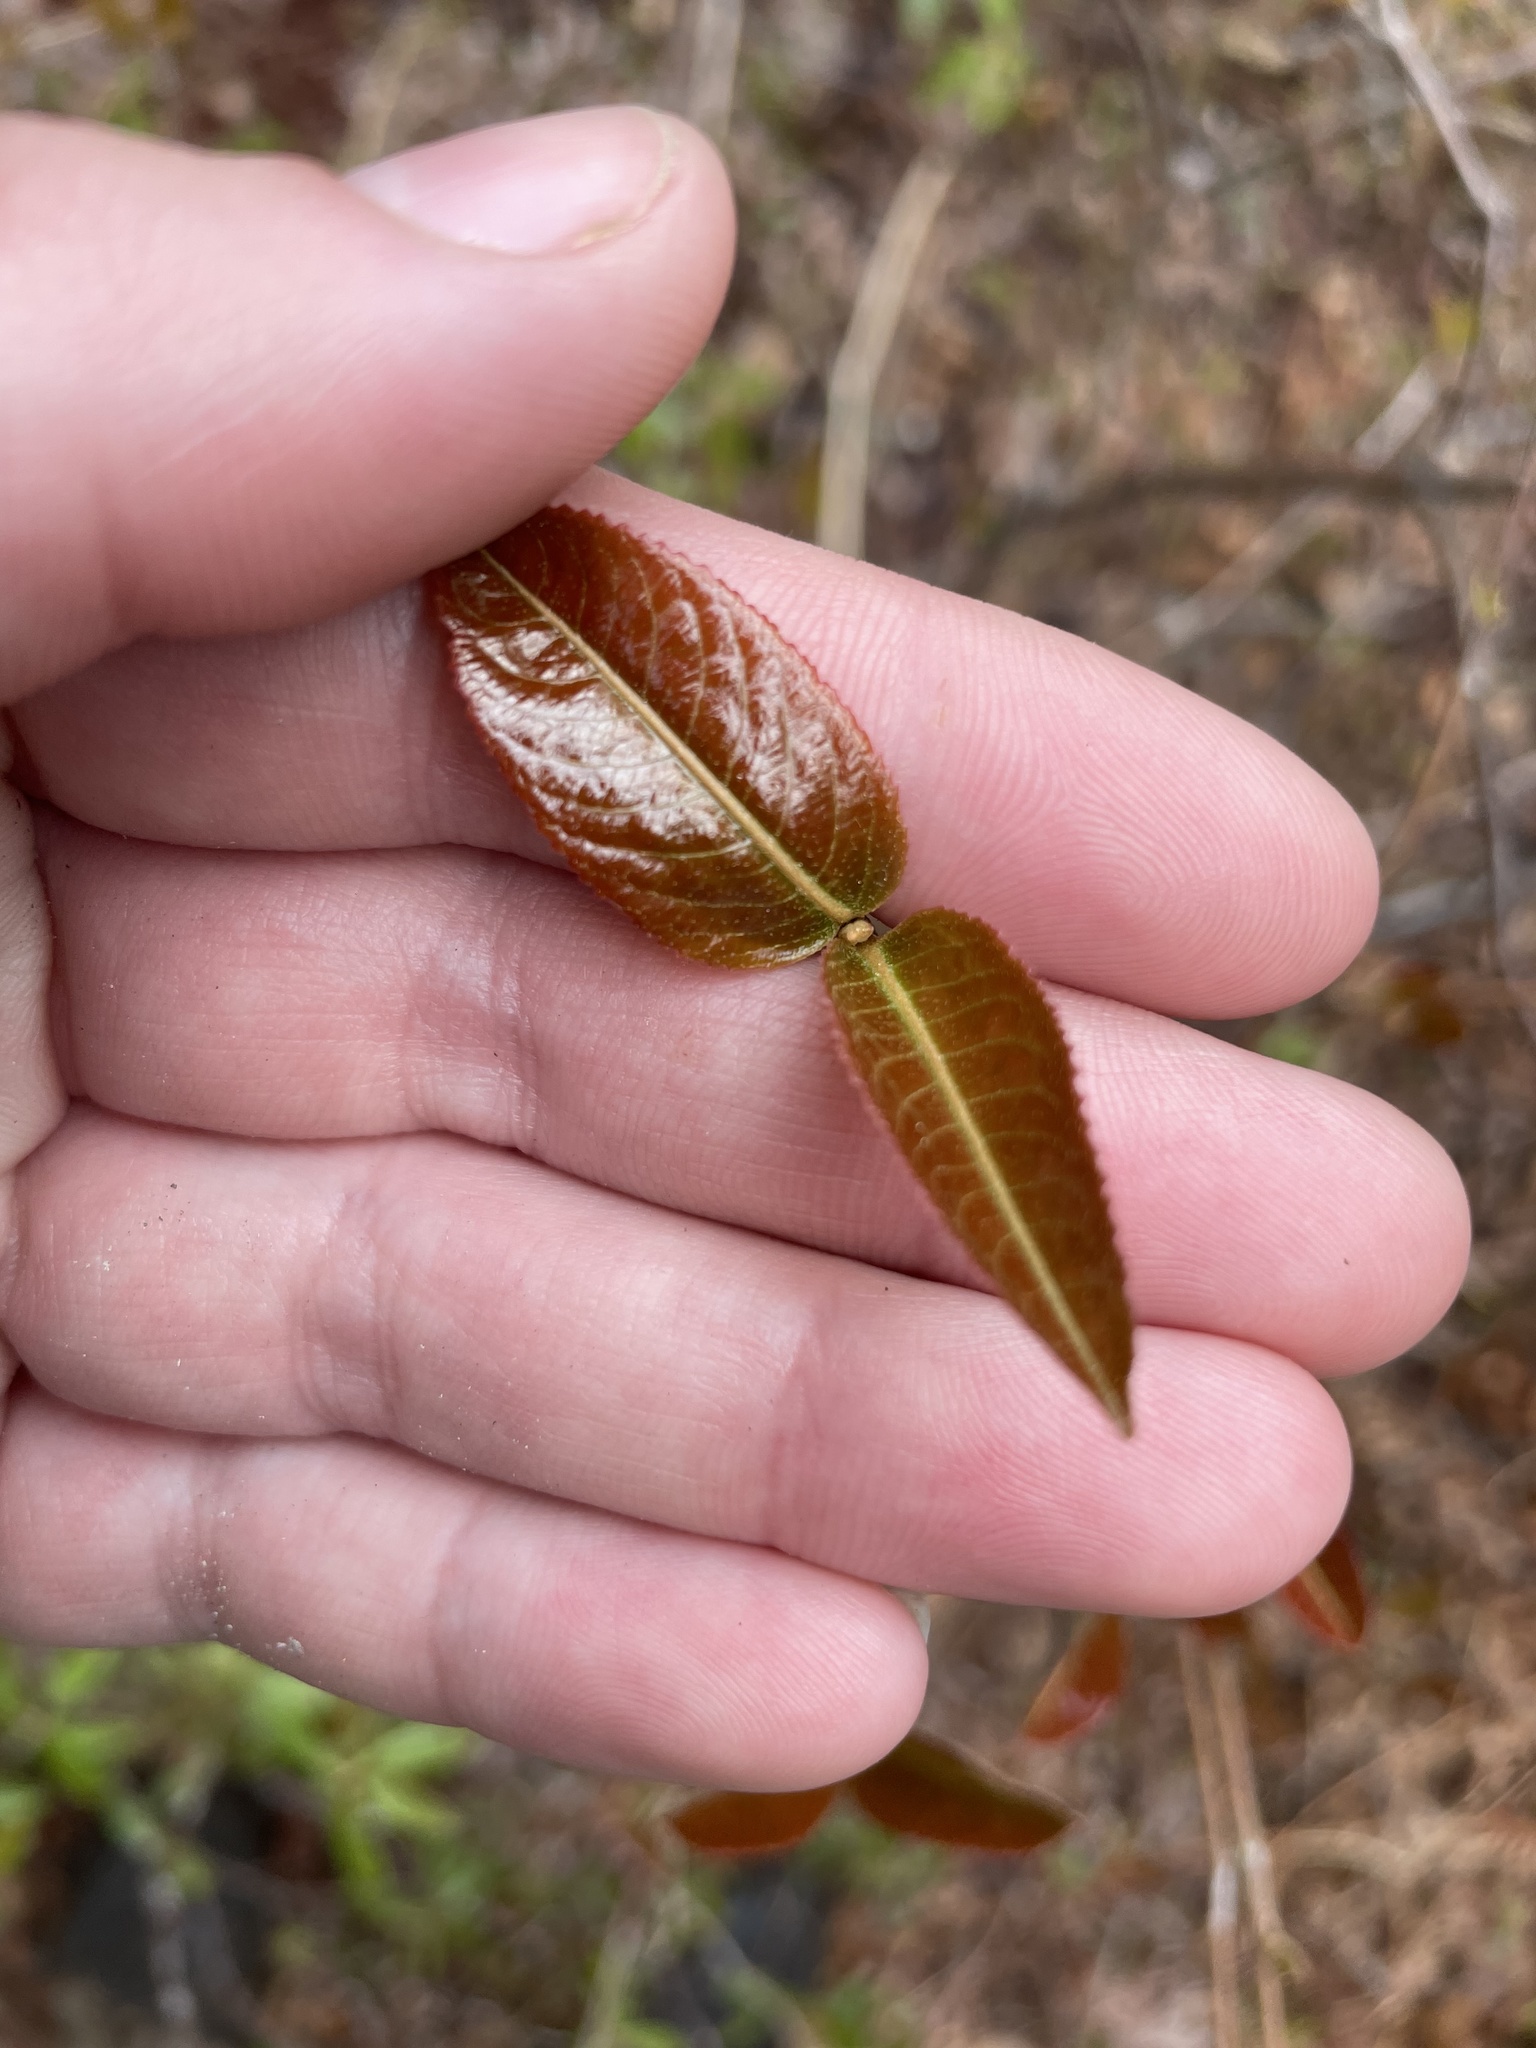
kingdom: Plantae
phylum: Tracheophyta
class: Magnoliopsida
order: Dipsacales
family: Viburnaceae
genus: Viburnum
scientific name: Viburnum cassinoides
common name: Swamp haw
